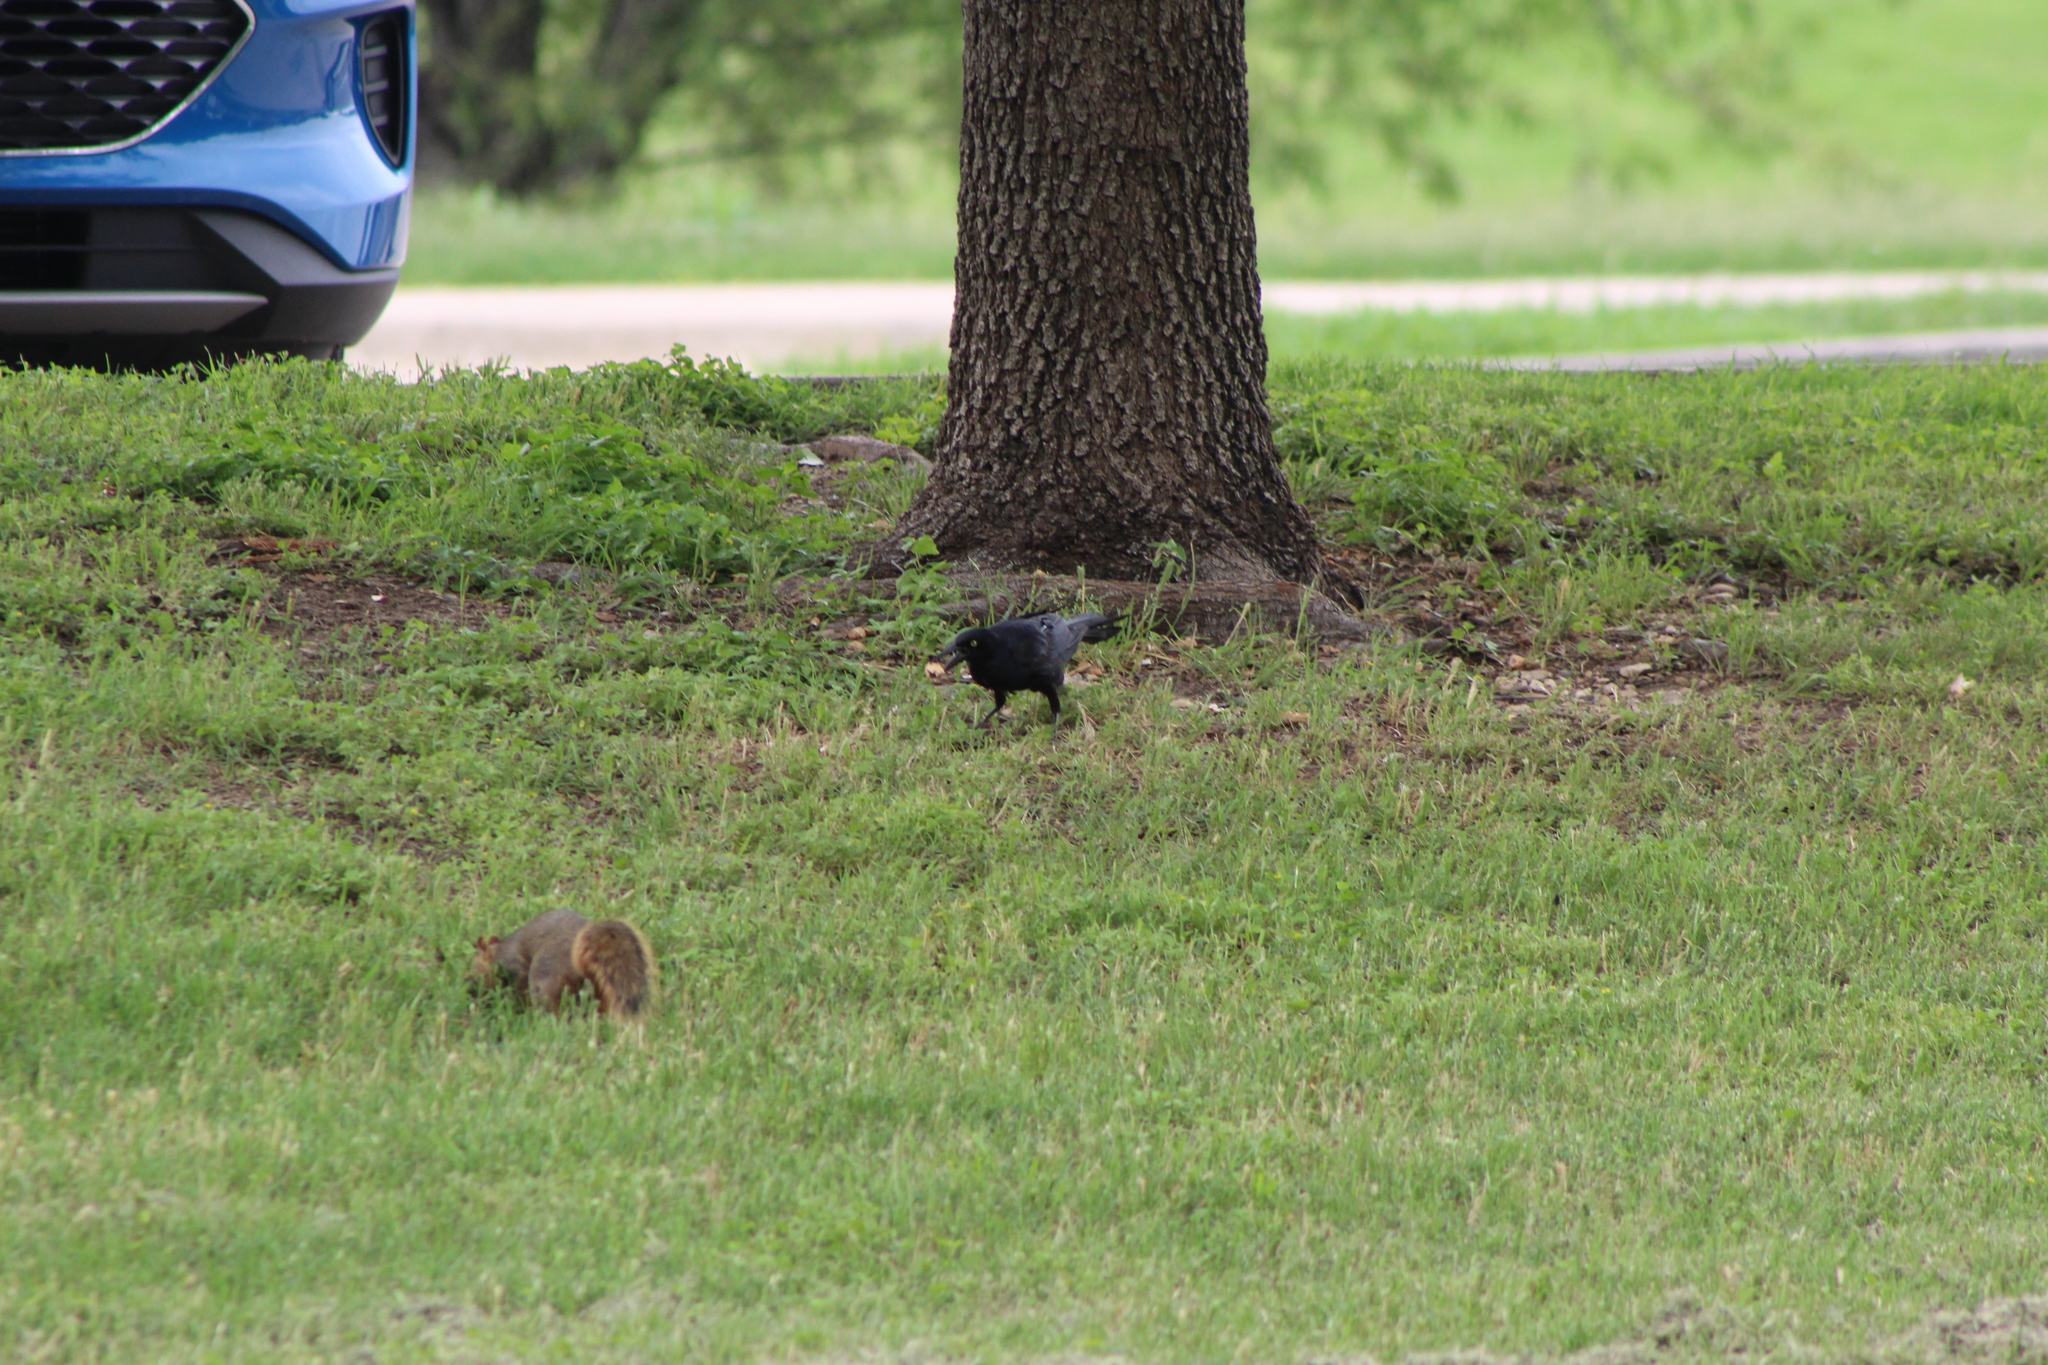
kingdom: Animalia
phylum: Chordata
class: Mammalia
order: Rodentia
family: Sciuridae
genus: Sciurus
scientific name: Sciurus niger
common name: Fox squirrel
